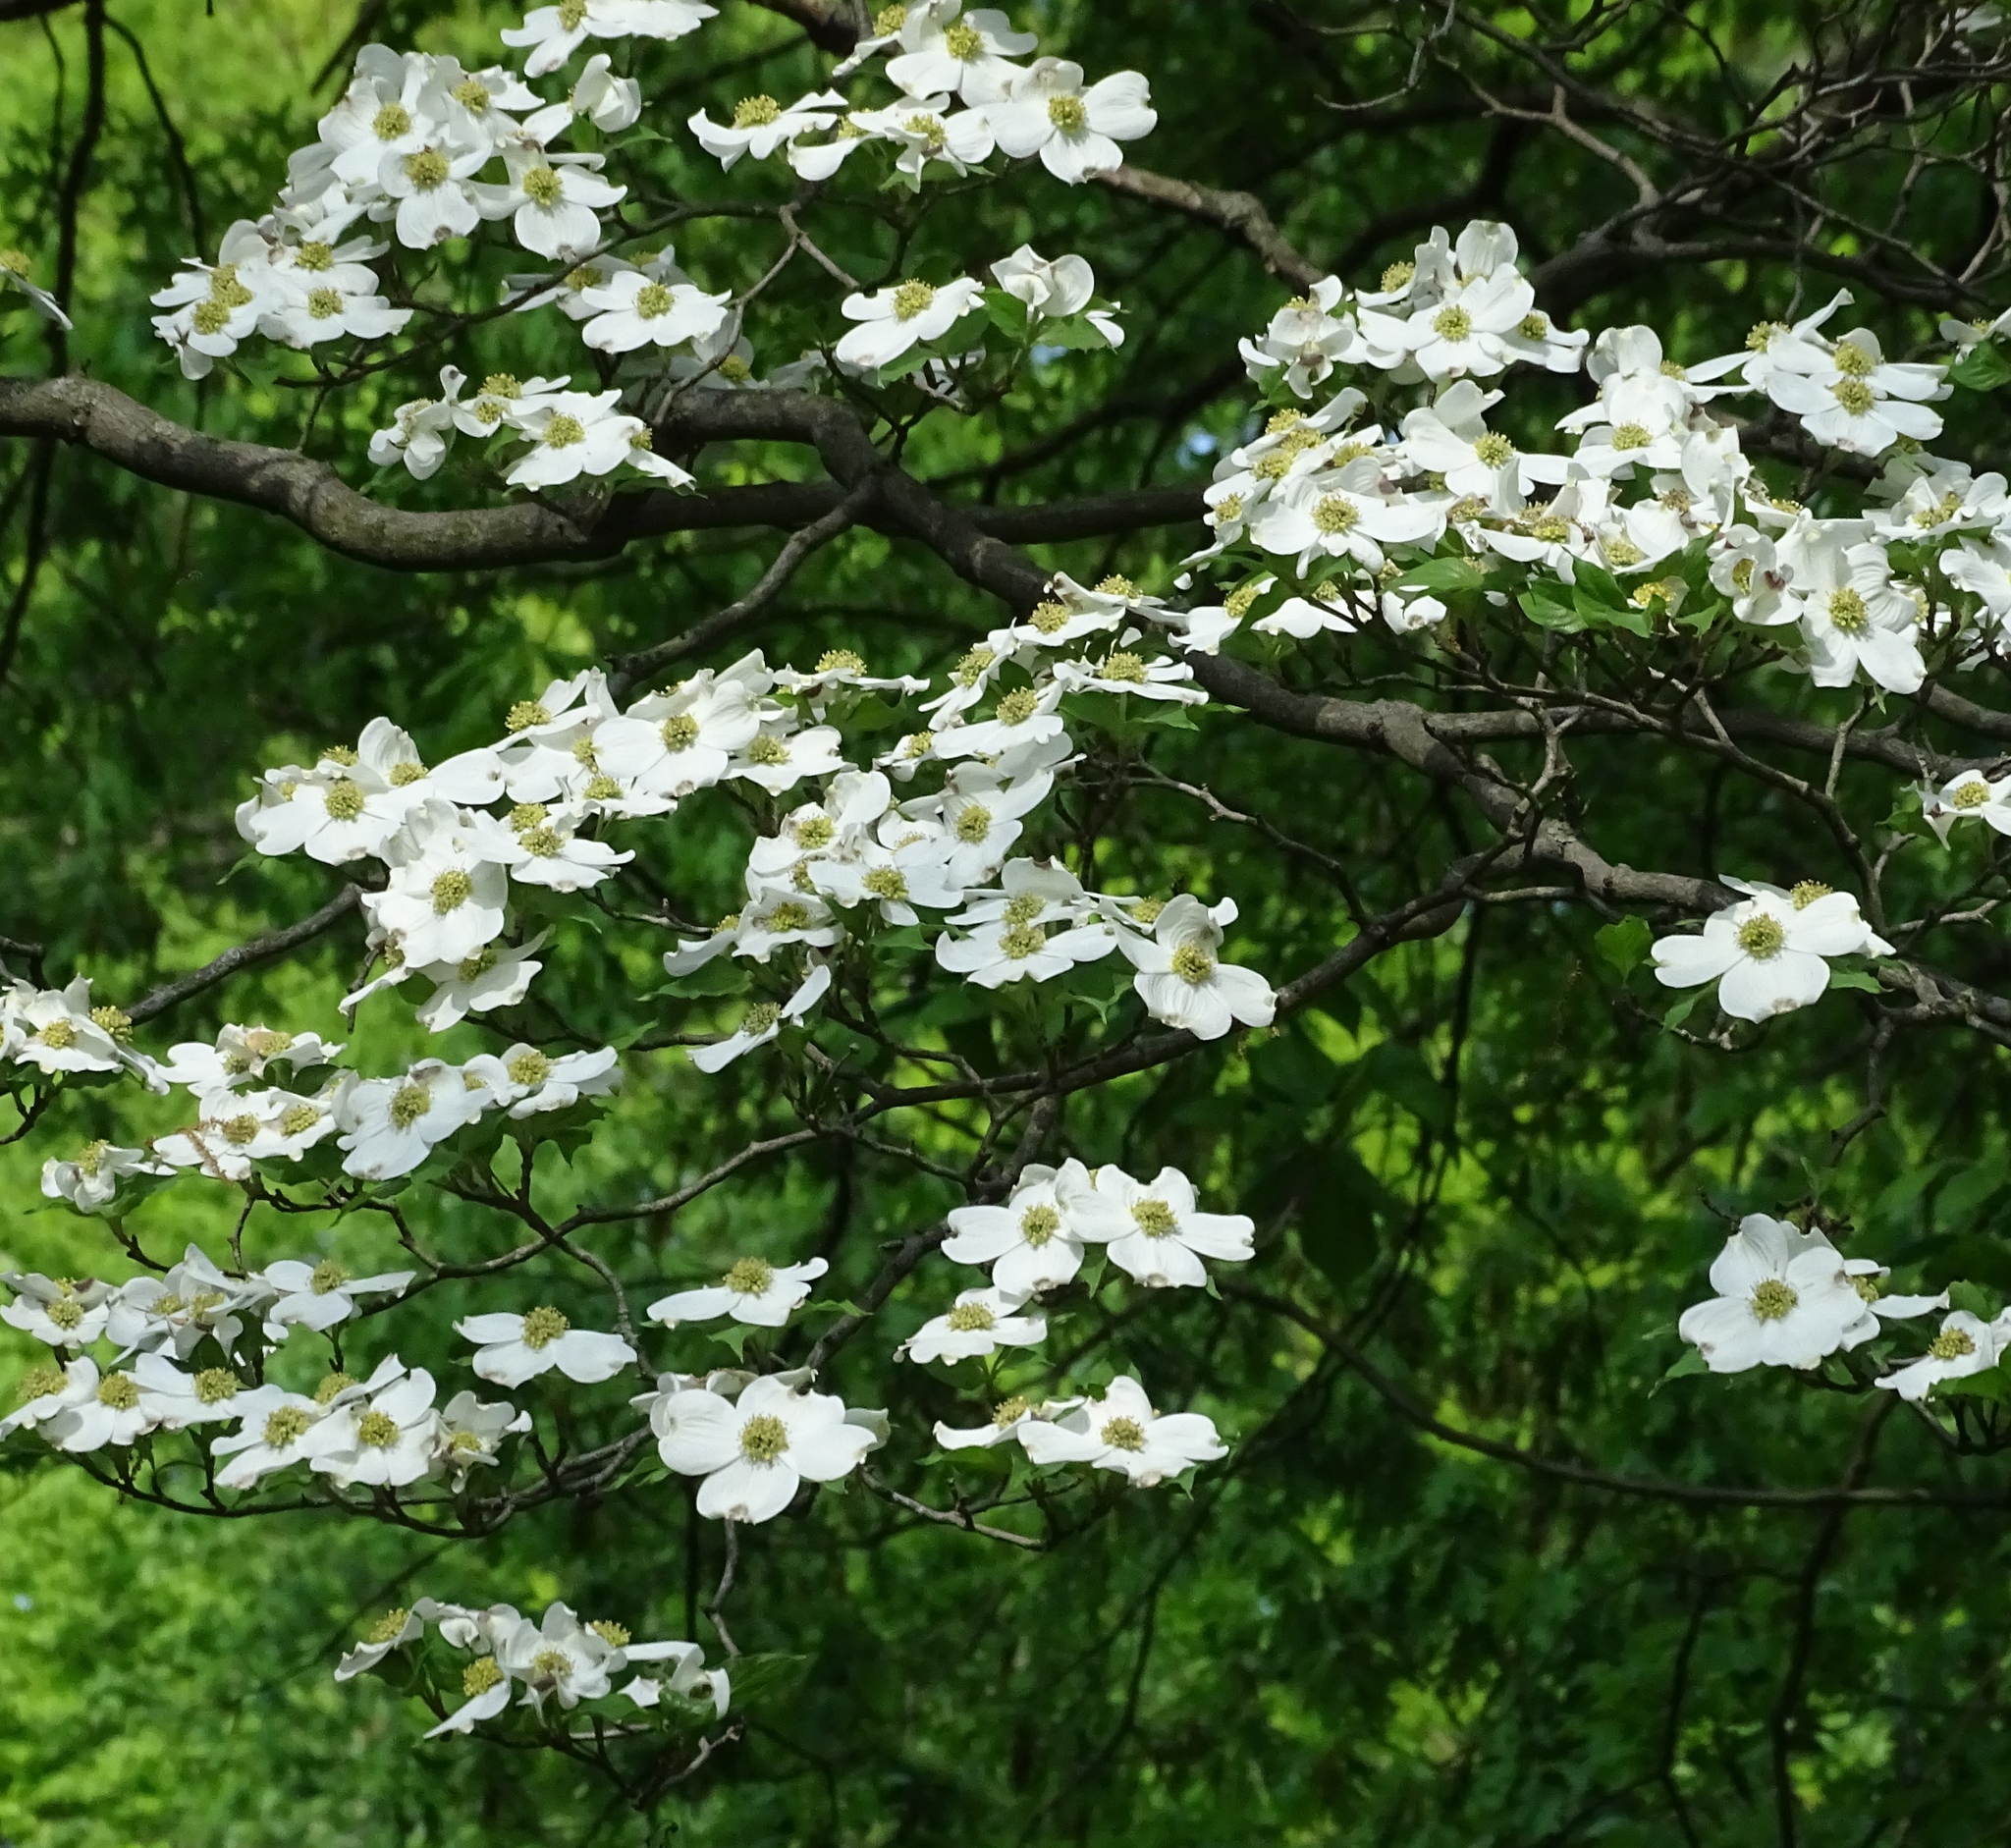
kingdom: Plantae
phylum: Tracheophyta
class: Magnoliopsida
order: Cornales
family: Cornaceae
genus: Cornus
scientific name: Cornus florida
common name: Flowering dogwood
